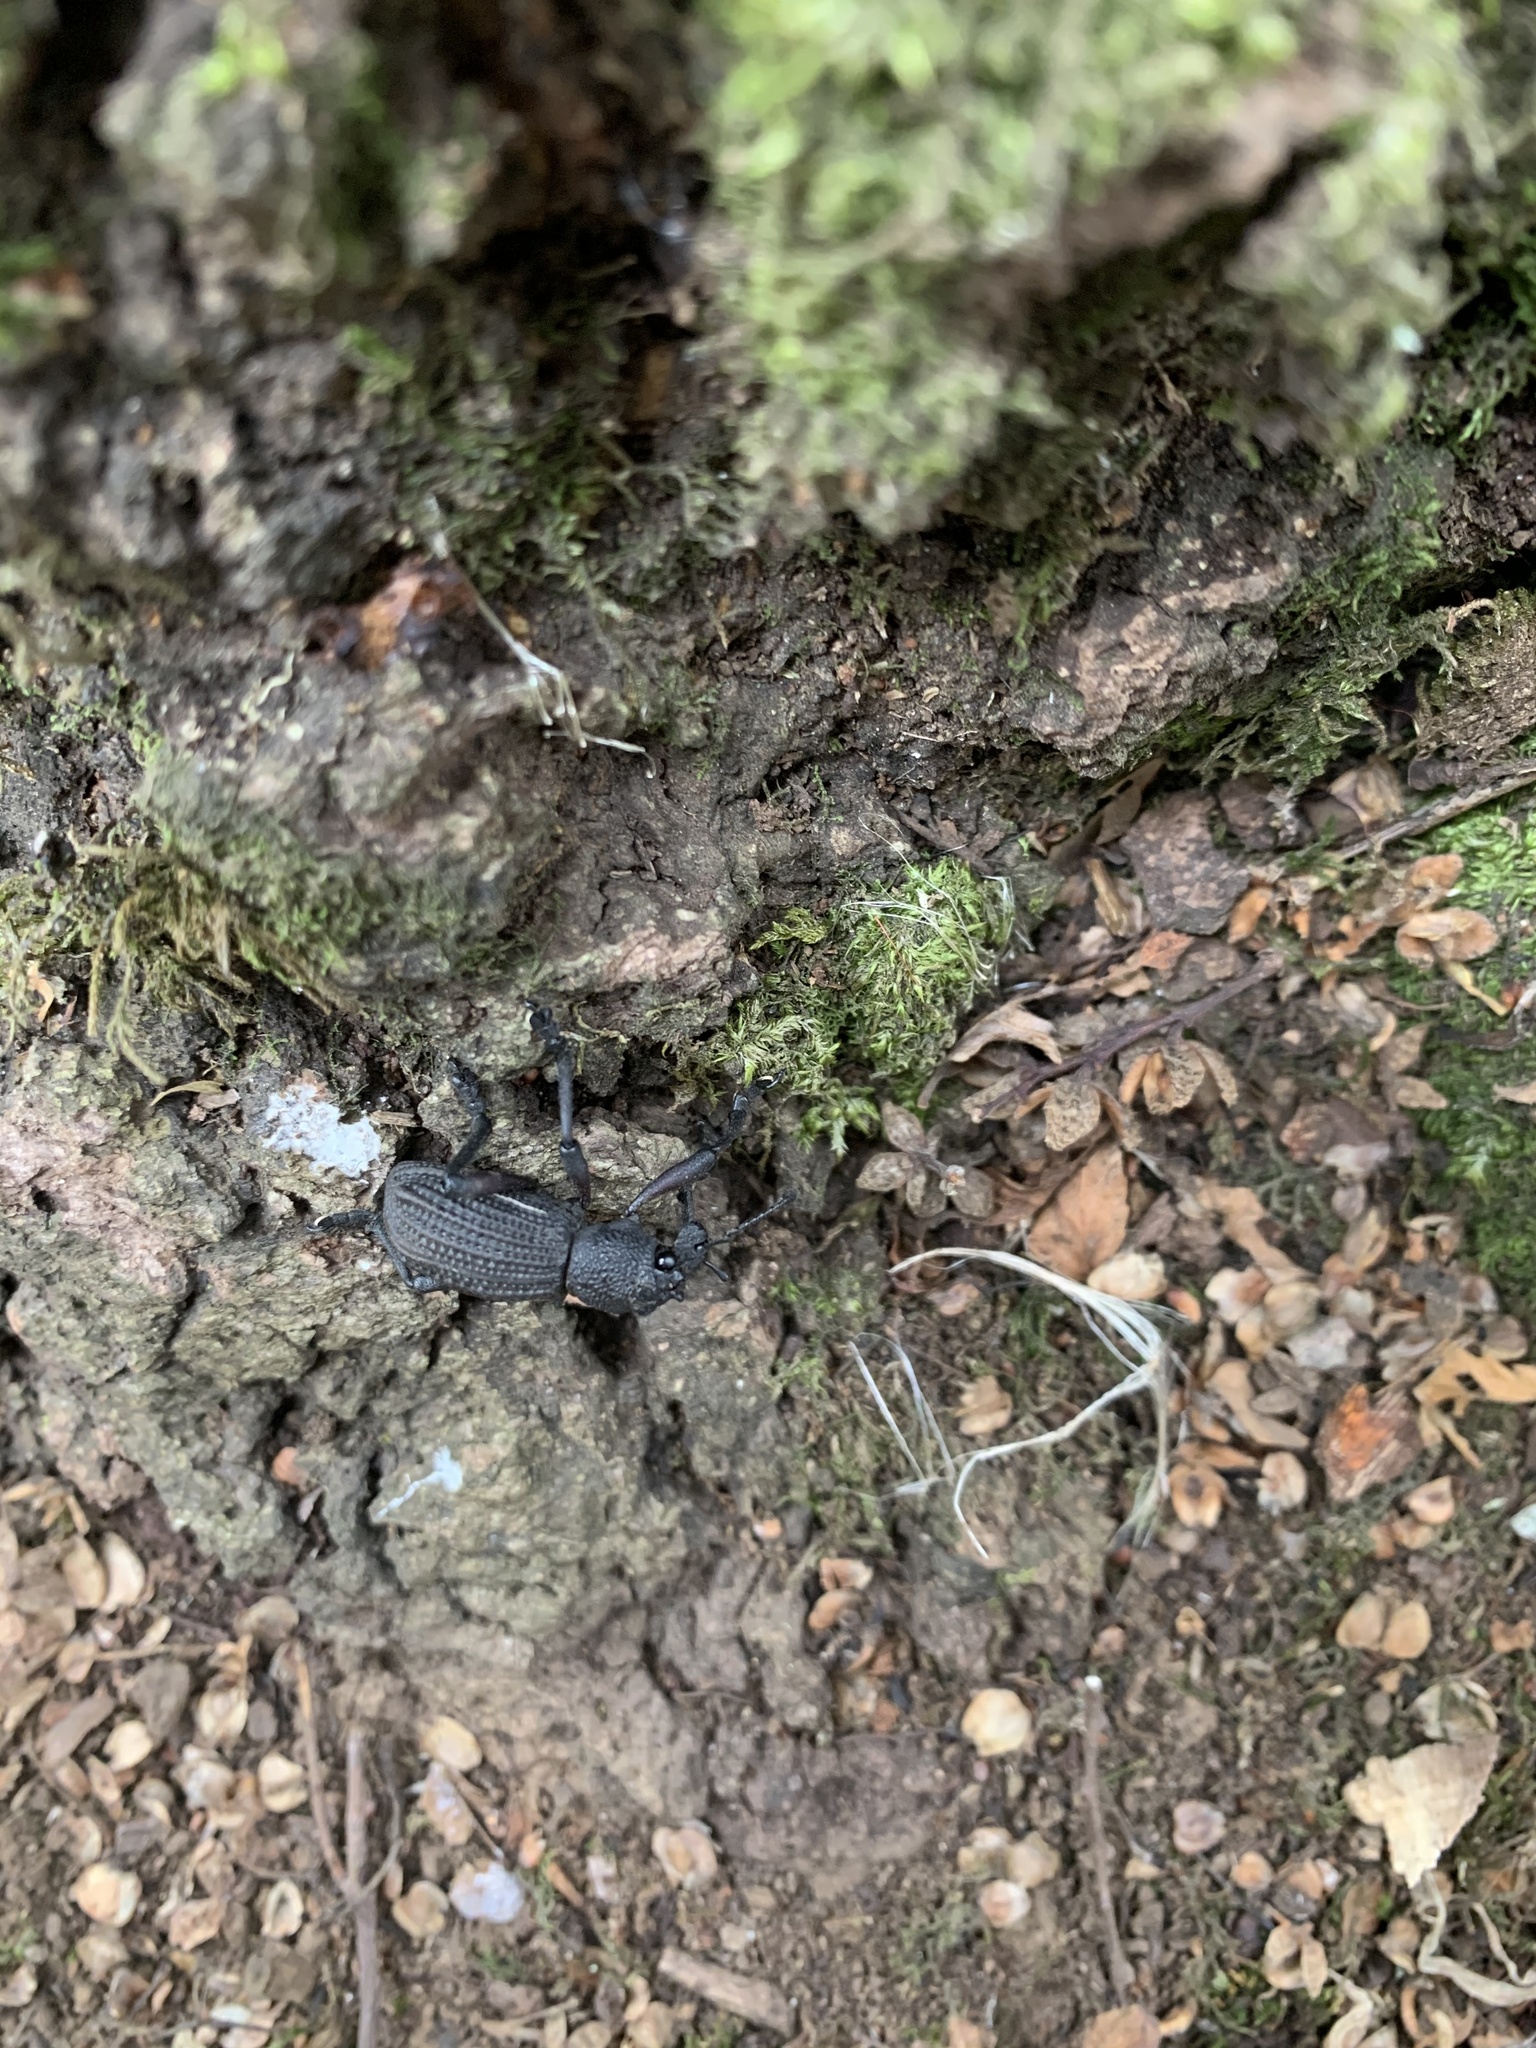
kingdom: Animalia
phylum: Arthropoda
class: Insecta
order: Coleoptera
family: Curculionidae
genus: Aegorhinus
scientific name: Aegorhinus
